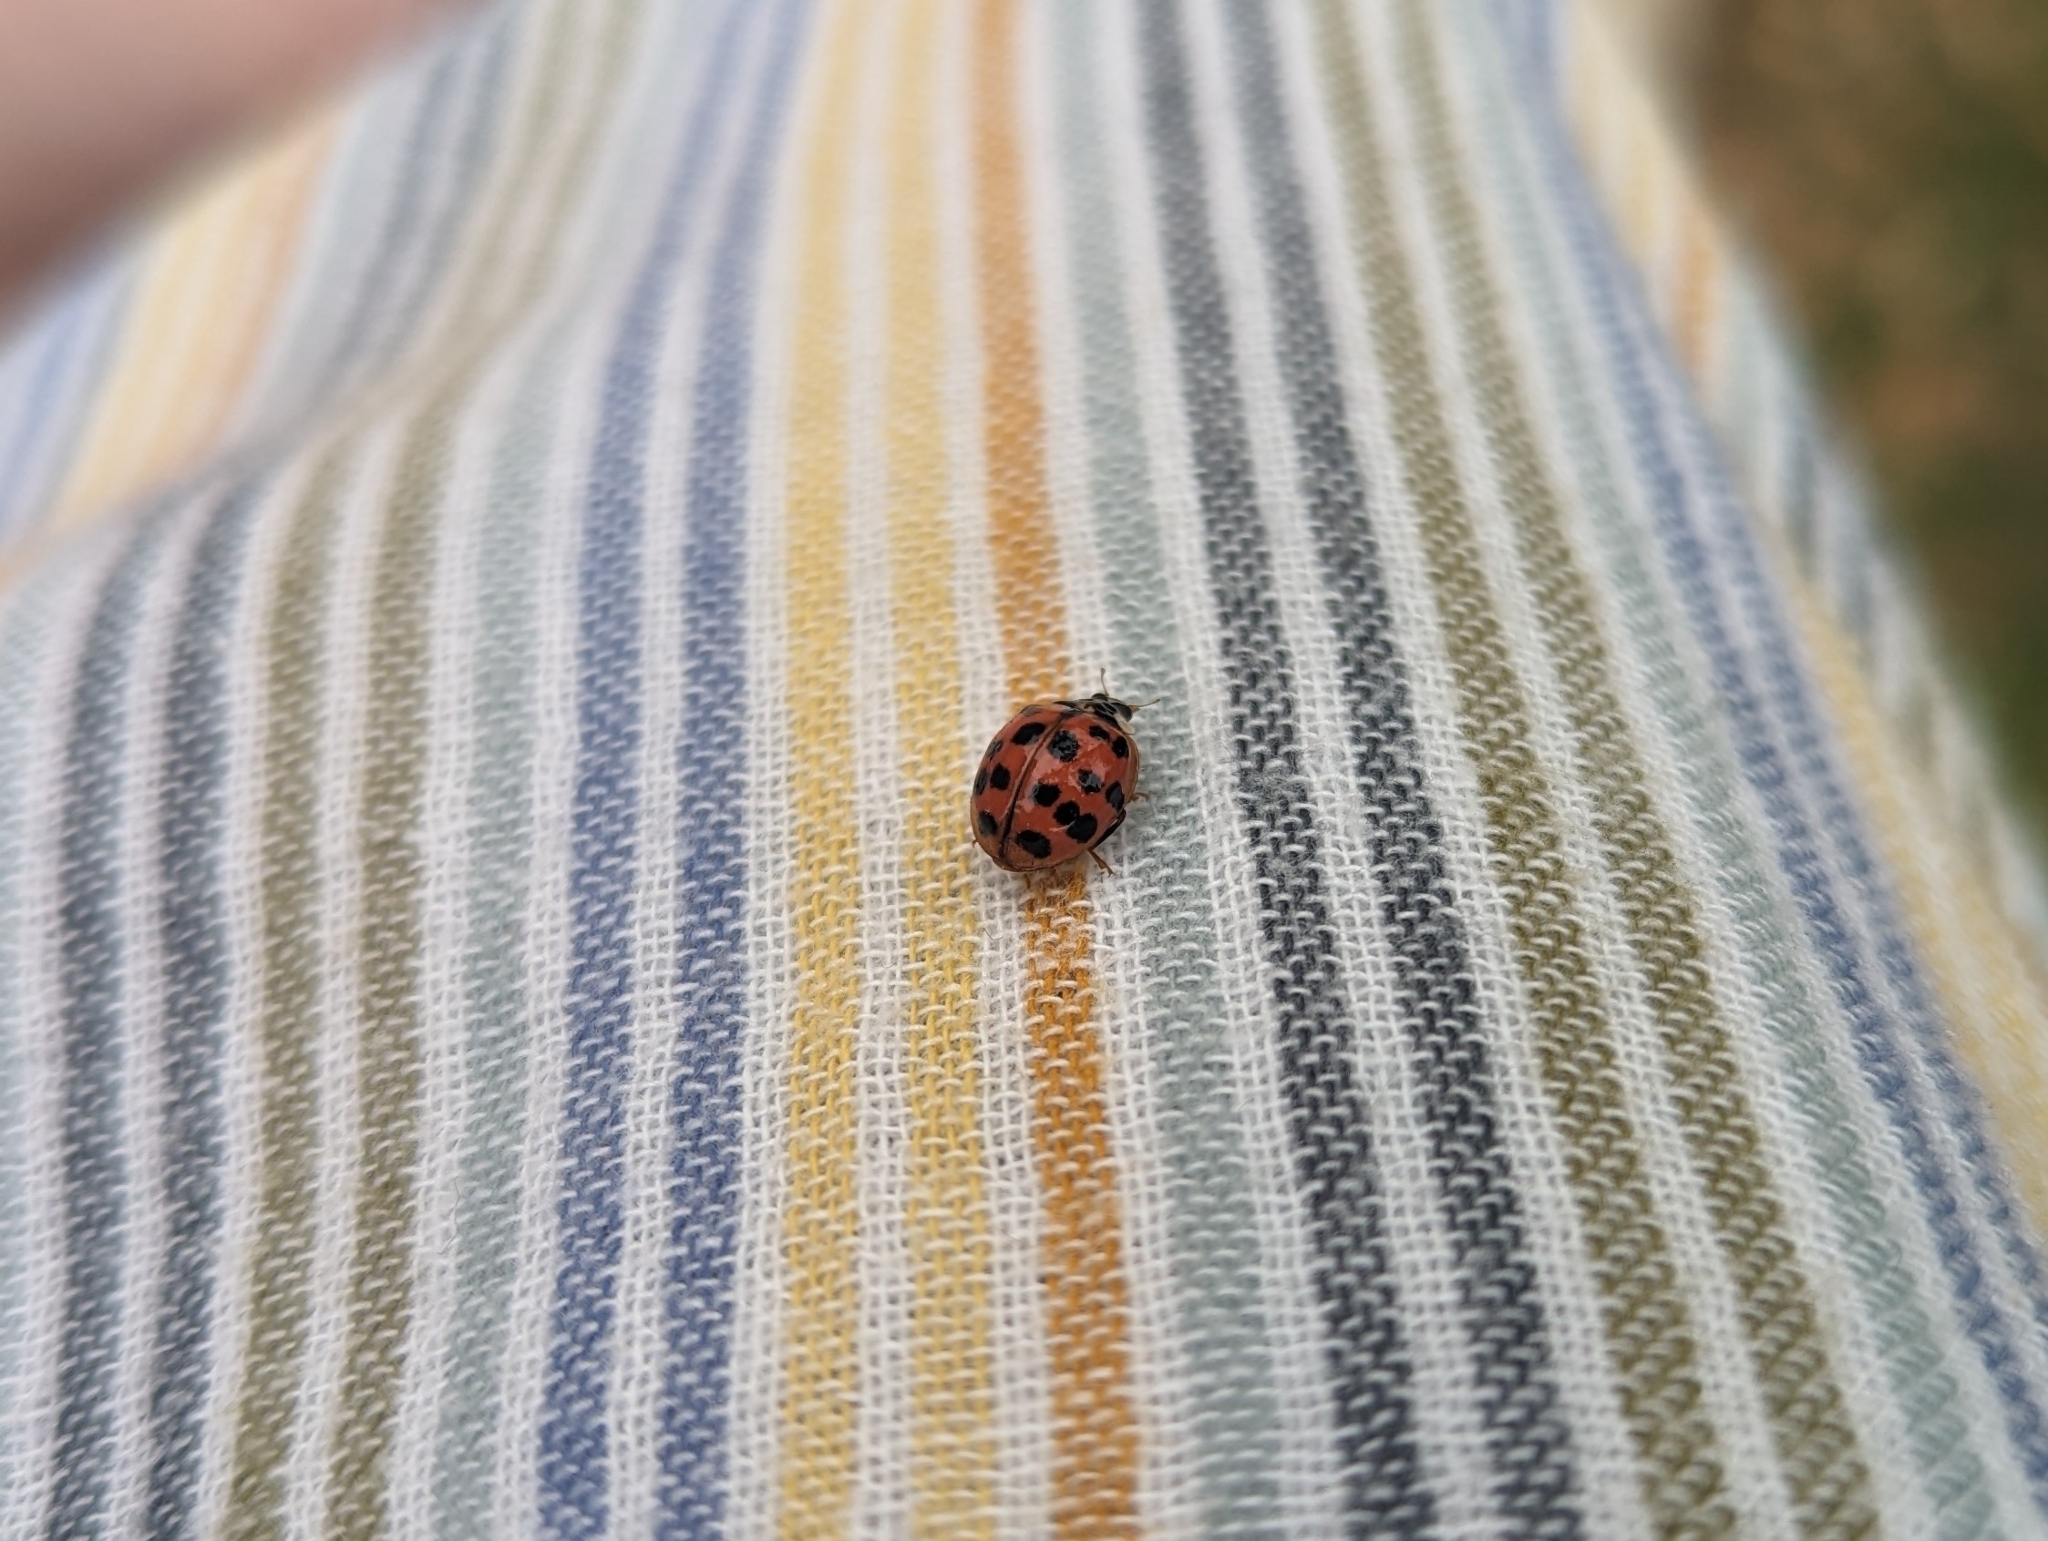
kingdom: Animalia
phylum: Arthropoda
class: Insecta
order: Coleoptera
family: Coccinellidae
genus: Harmonia
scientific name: Harmonia axyridis
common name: Harlequin ladybird
